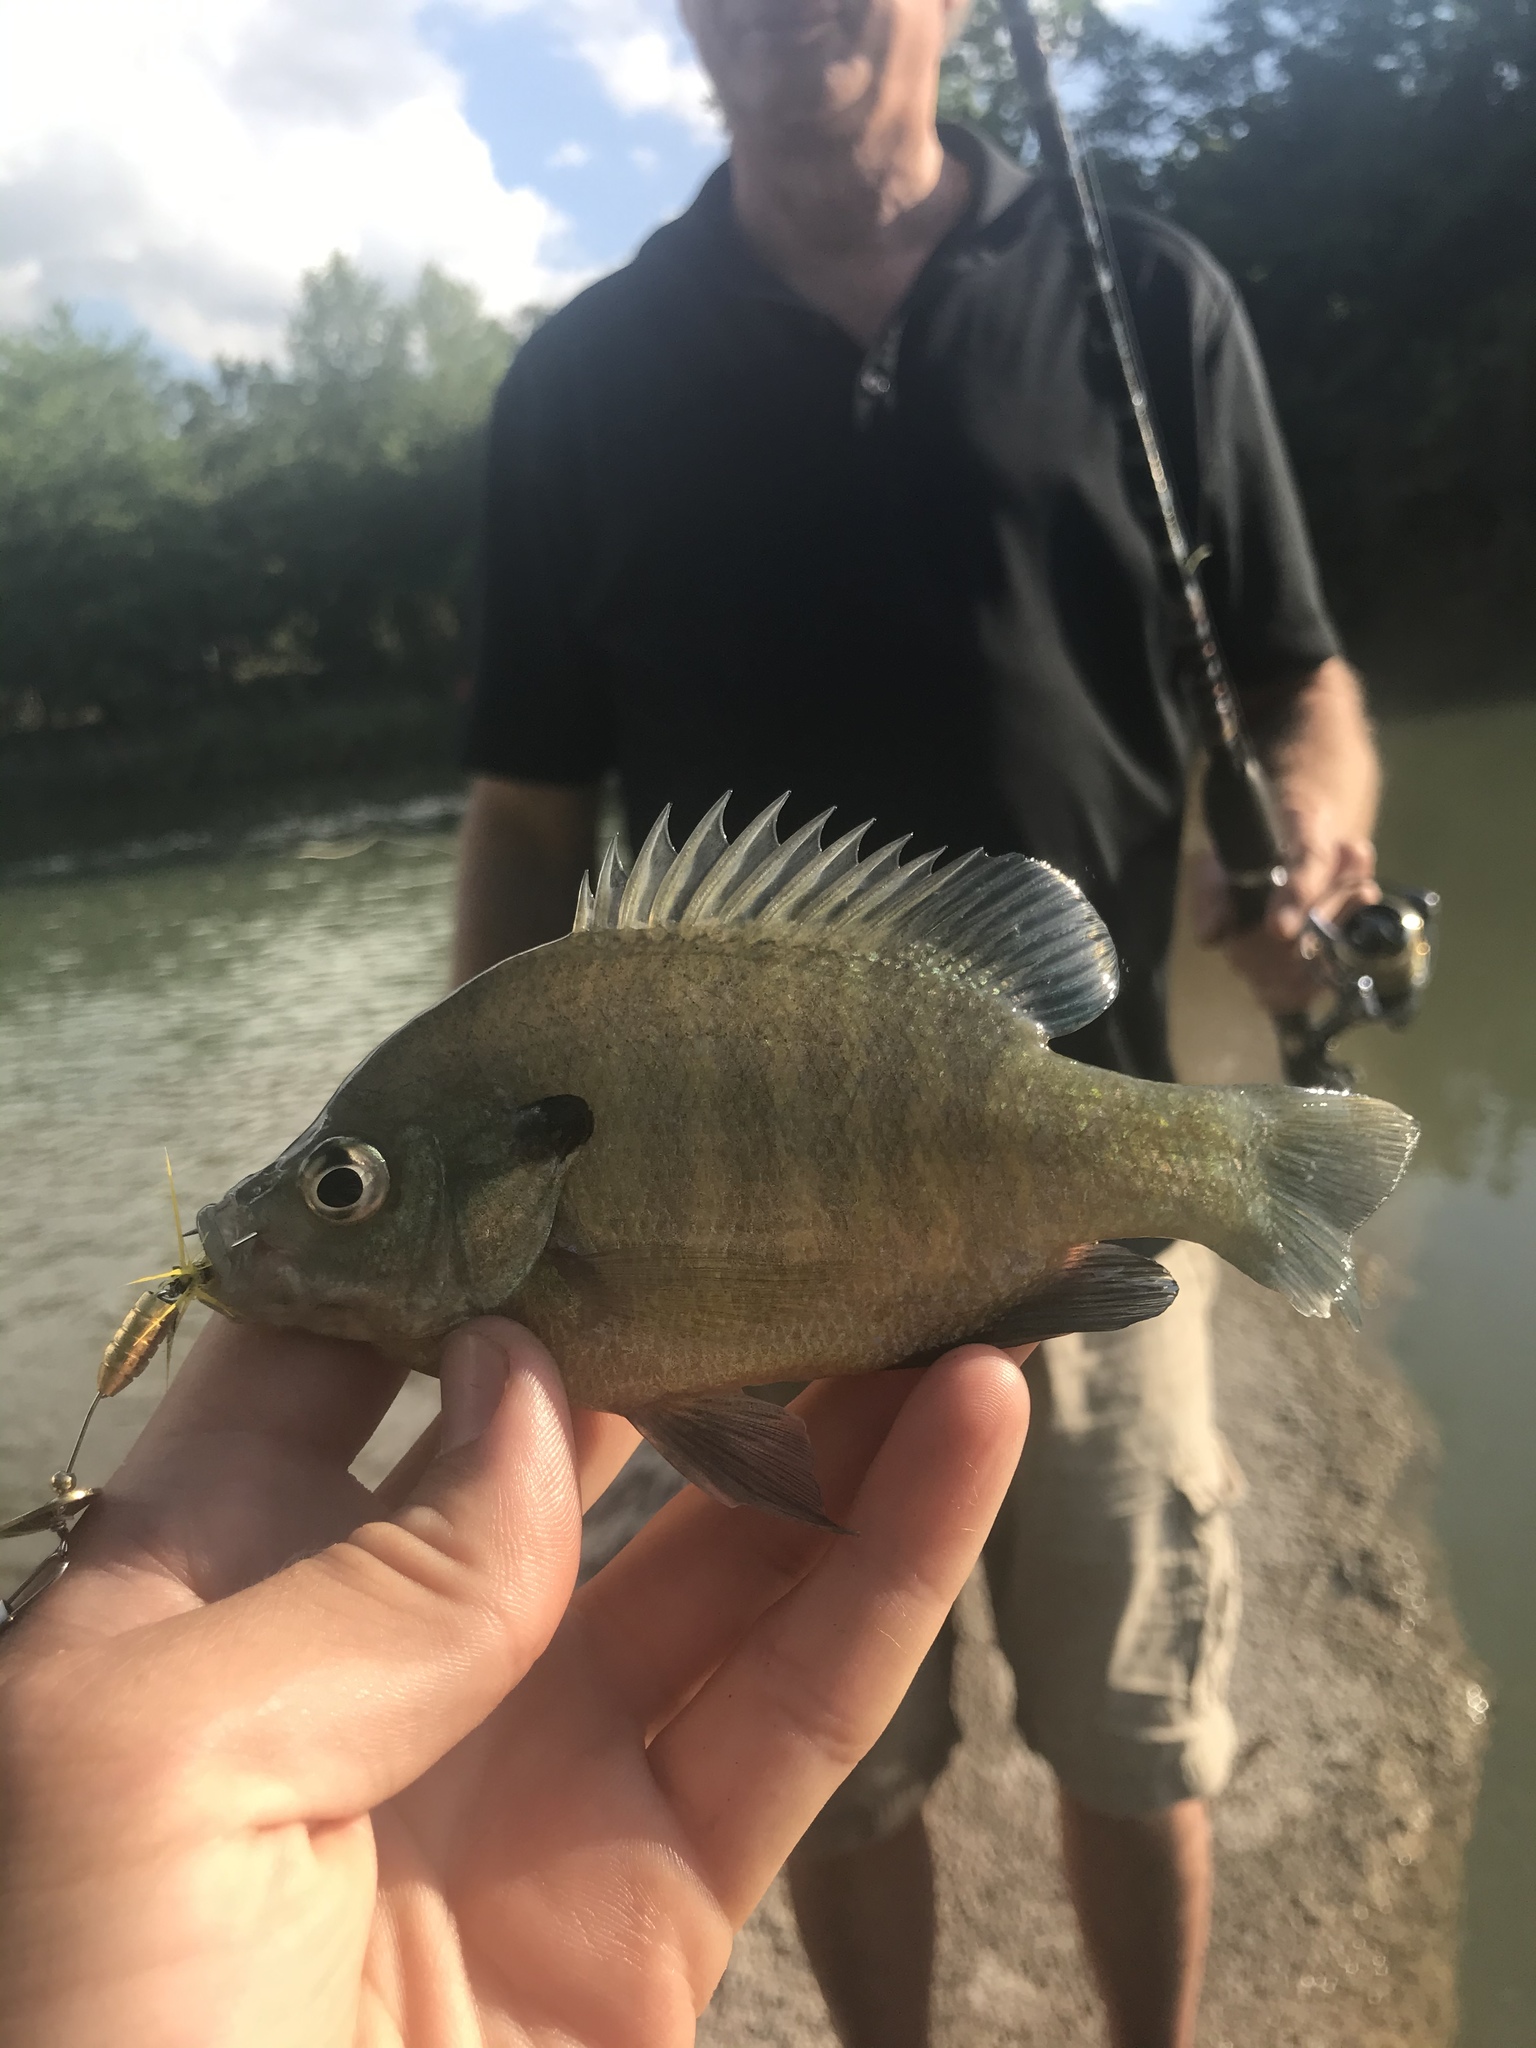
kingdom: Animalia
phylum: Chordata
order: Perciformes
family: Centrarchidae
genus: Lepomis
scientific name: Lepomis macrochirus
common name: Bluegill
